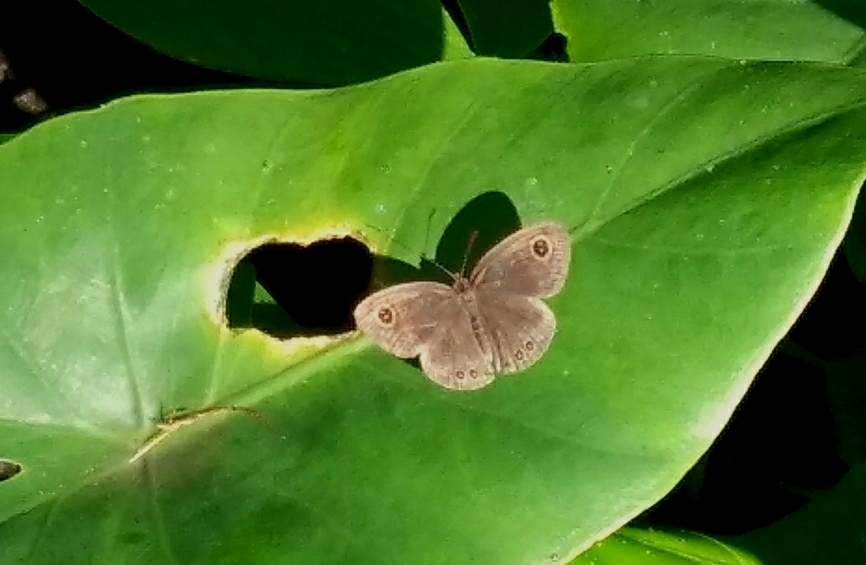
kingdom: Animalia
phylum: Arthropoda
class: Insecta
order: Lepidoptera
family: Nymphalidae
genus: Ypthima
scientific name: Ypthima huebneri
